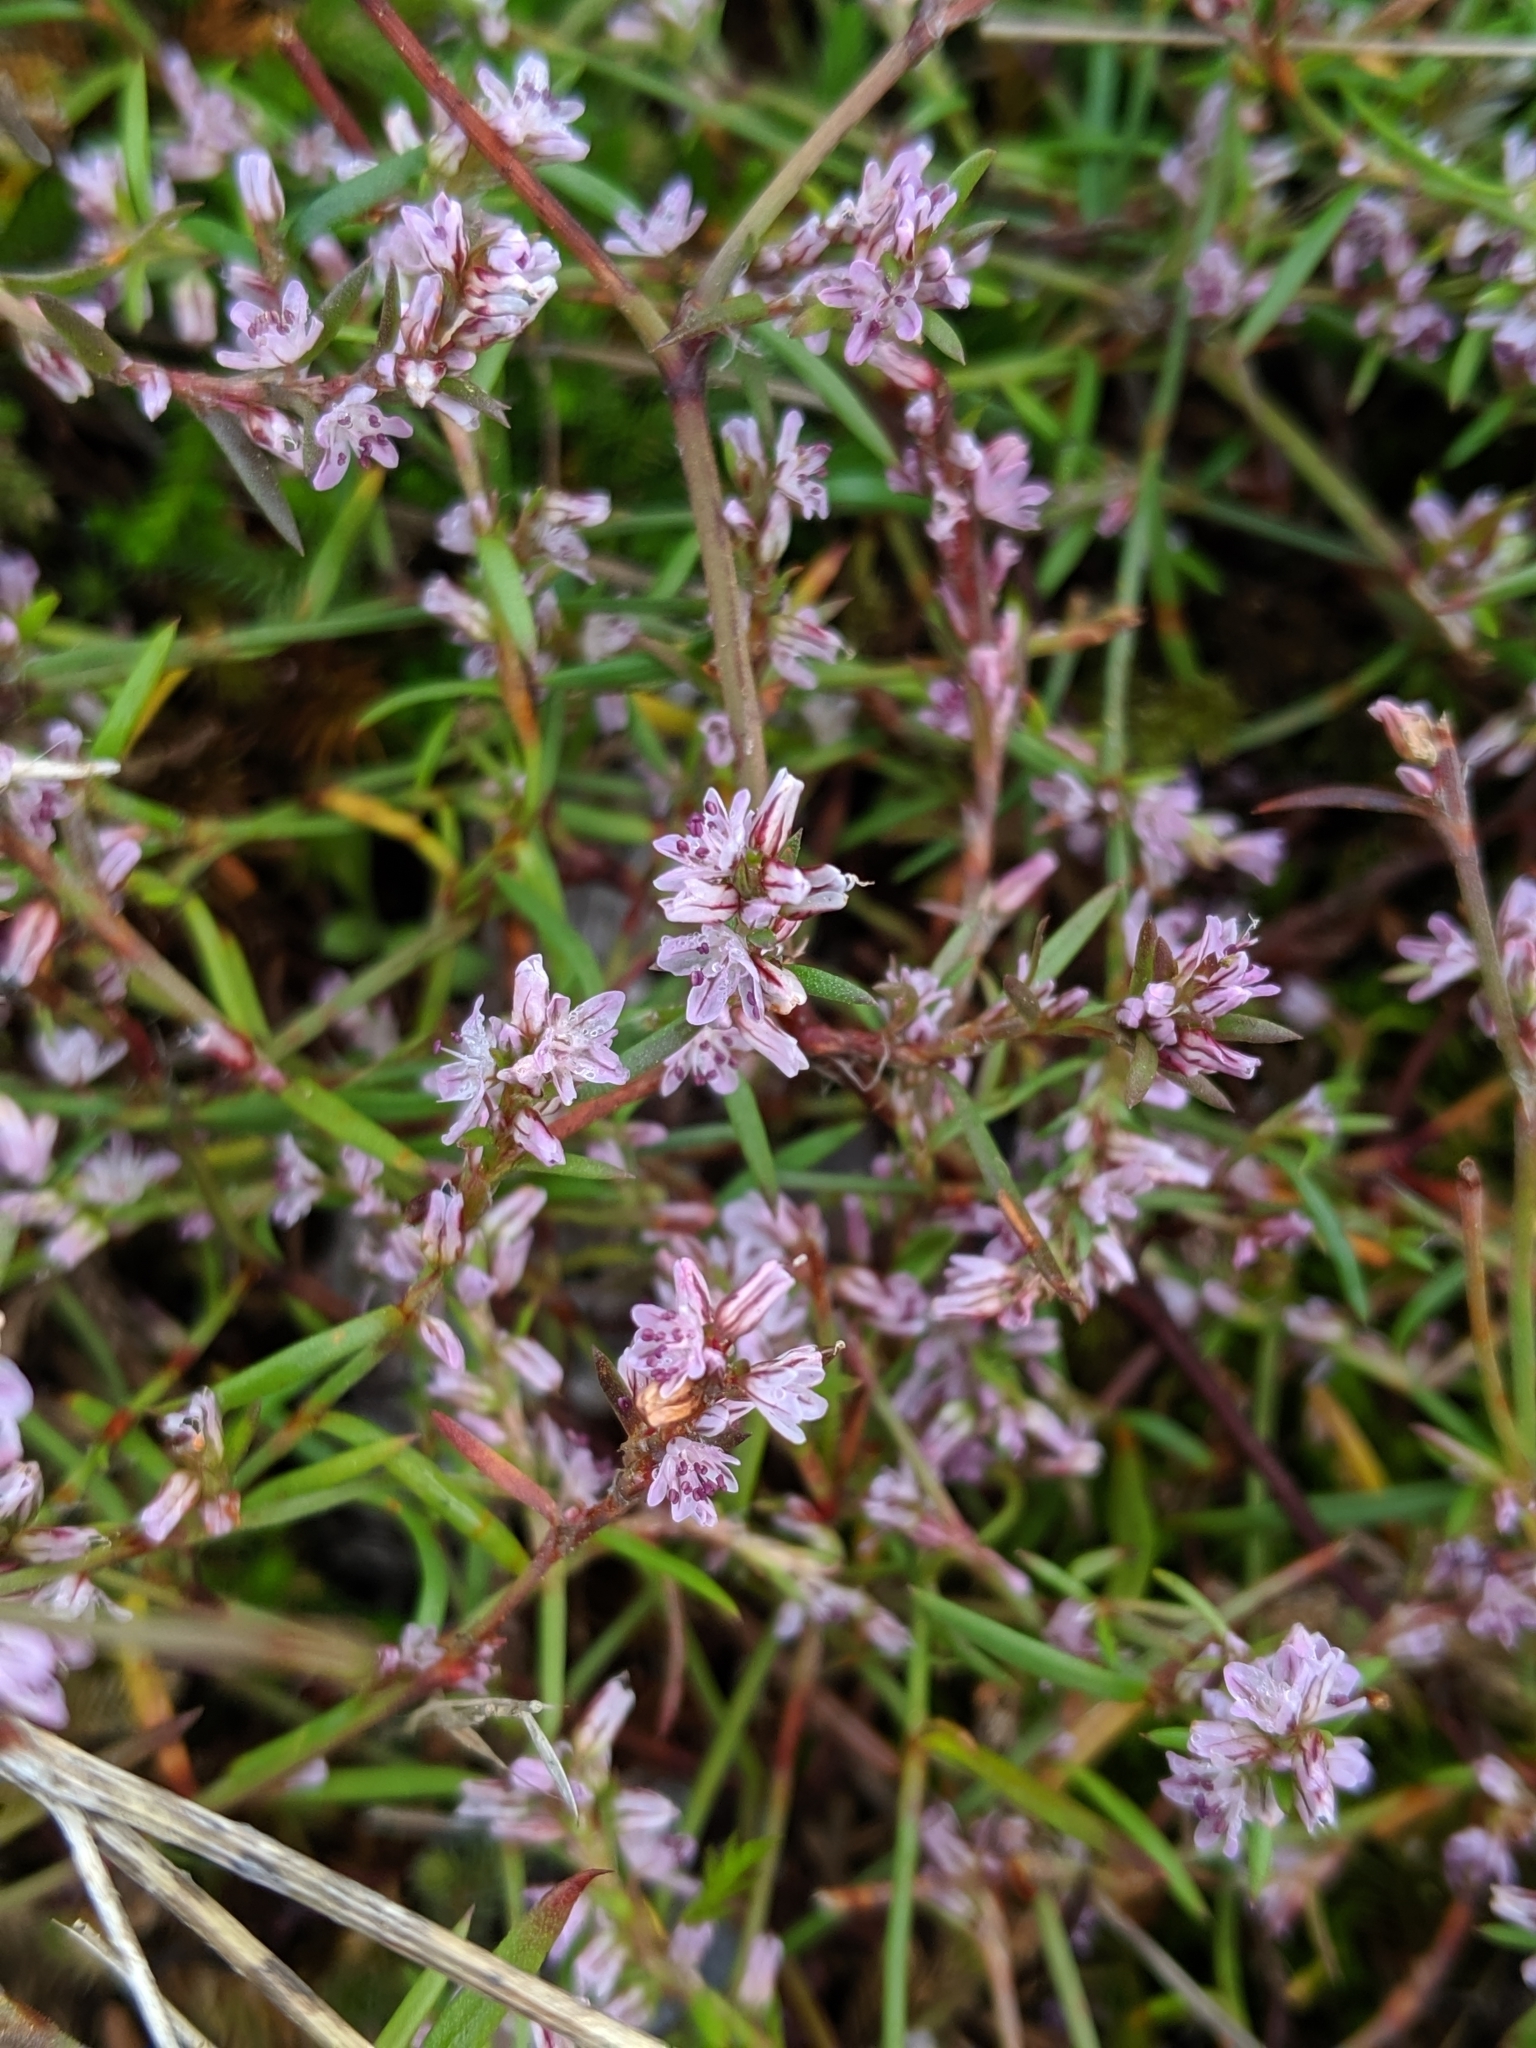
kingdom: Plantae
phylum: Tracheophyta
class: Magnoliopsida
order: Caryophyllales
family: Polygonaceae
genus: Polygonum
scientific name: Polygonum spergulariiforme
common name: Fall knotweed
